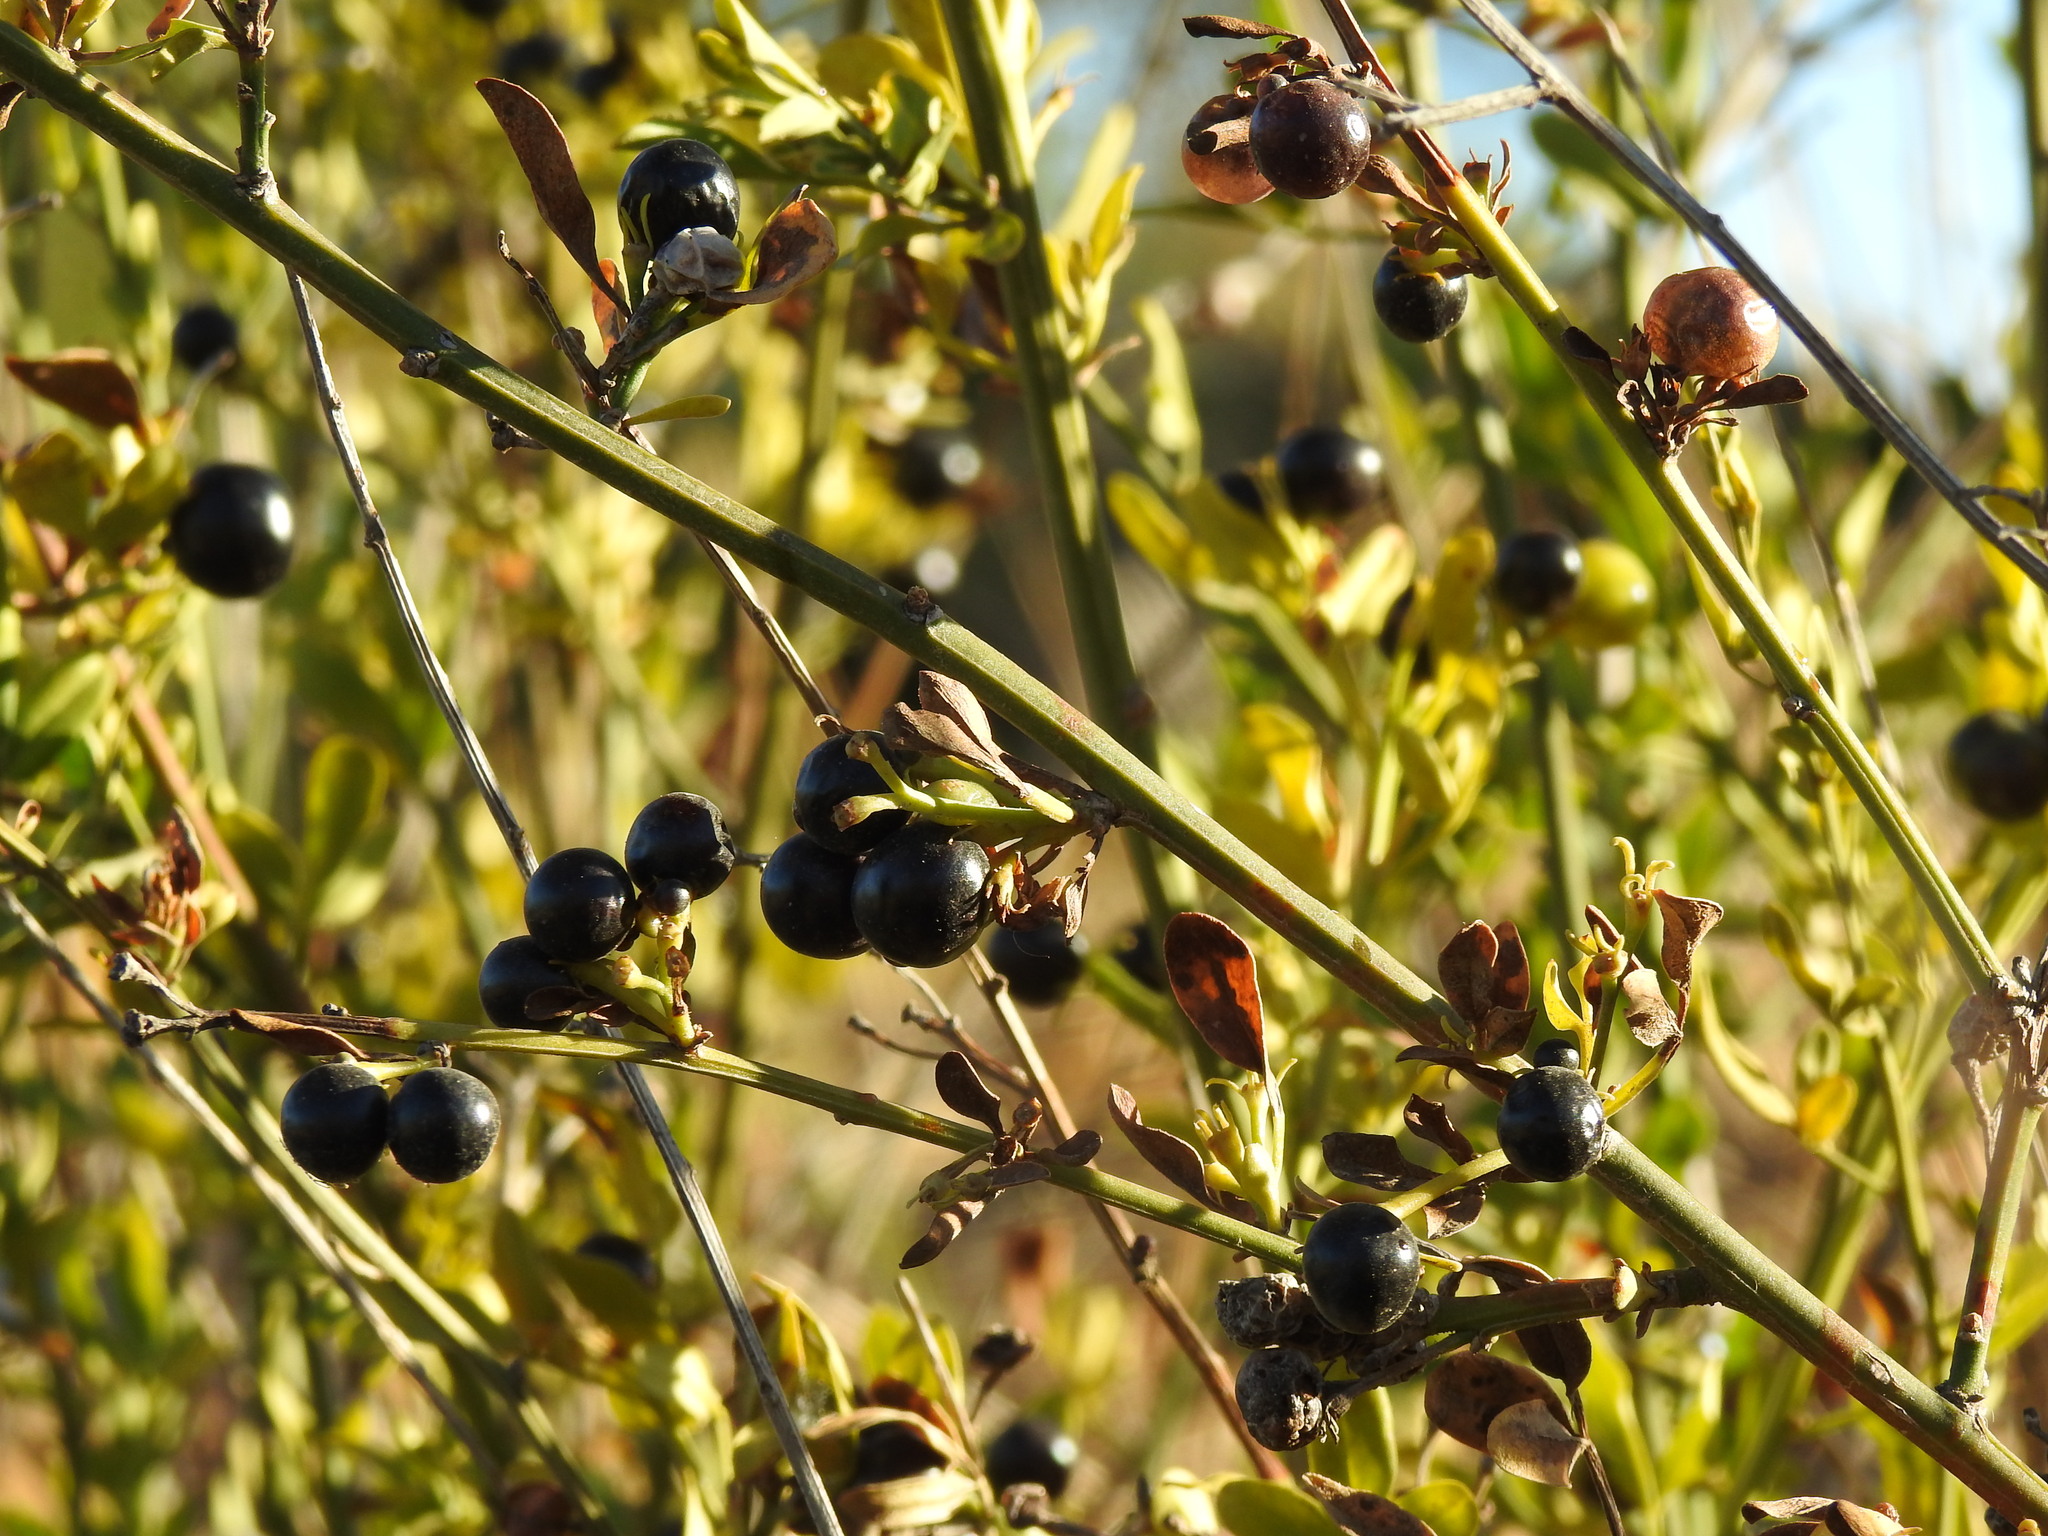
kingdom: Plantae
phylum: Tracheophyta
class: Magnoliopsida
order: Lamiales
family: Oleaceae
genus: Chrysojasminum
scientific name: Chrysojasminum fruticans
